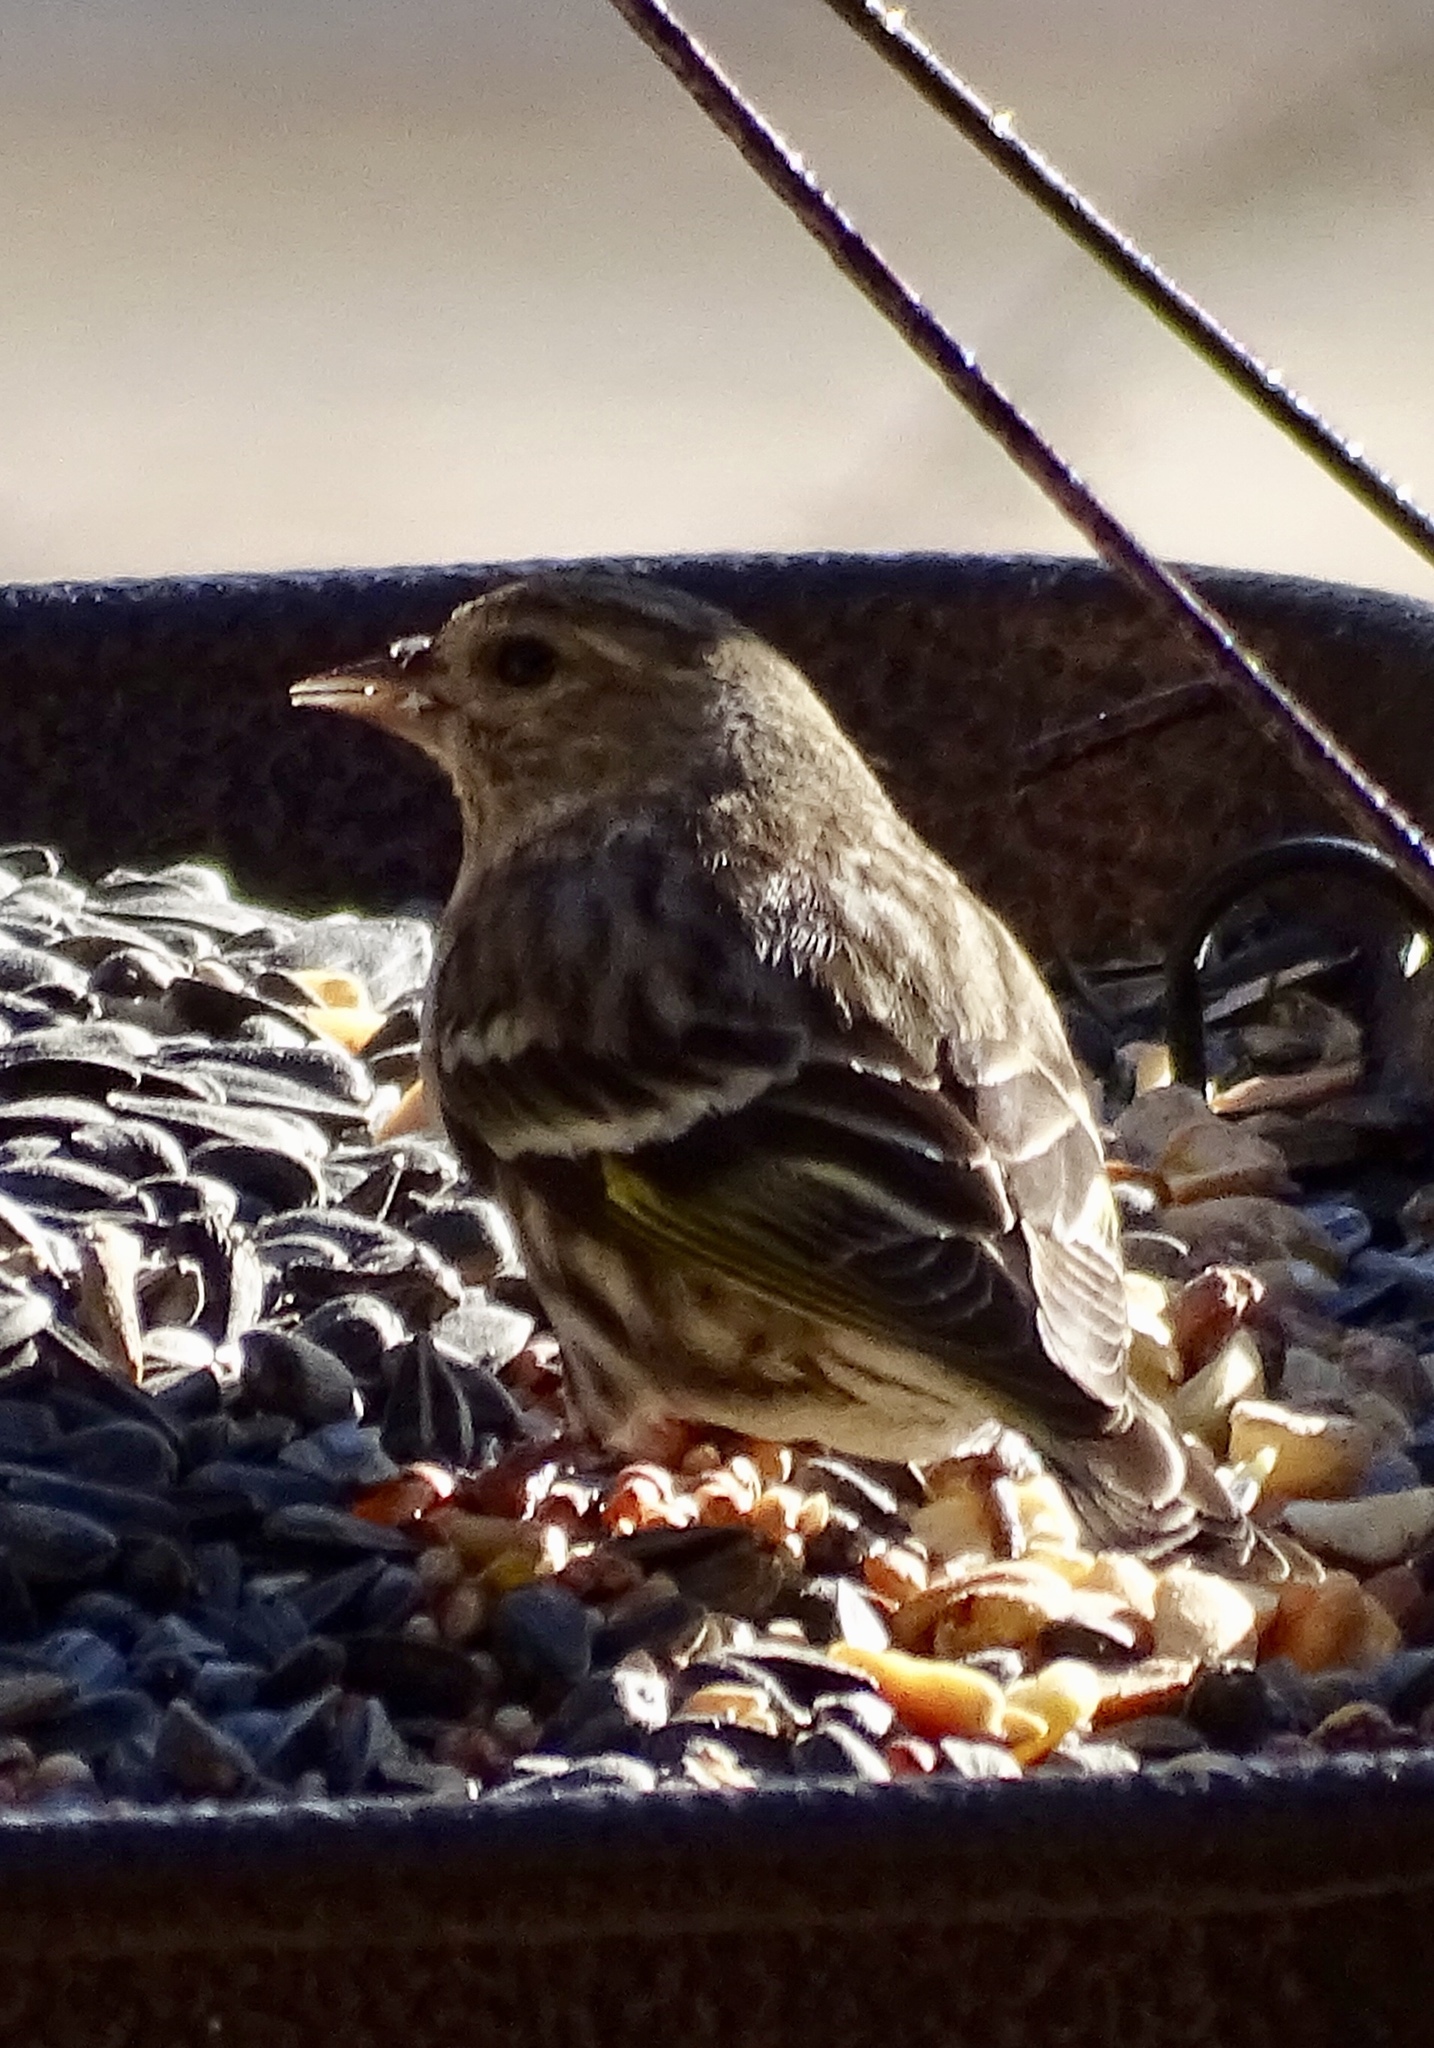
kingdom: Animalia
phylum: Chordata
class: Aves
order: Passeriformes
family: Fringillidae
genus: Spinus
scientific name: Spinus pinus
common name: Pine siskin
